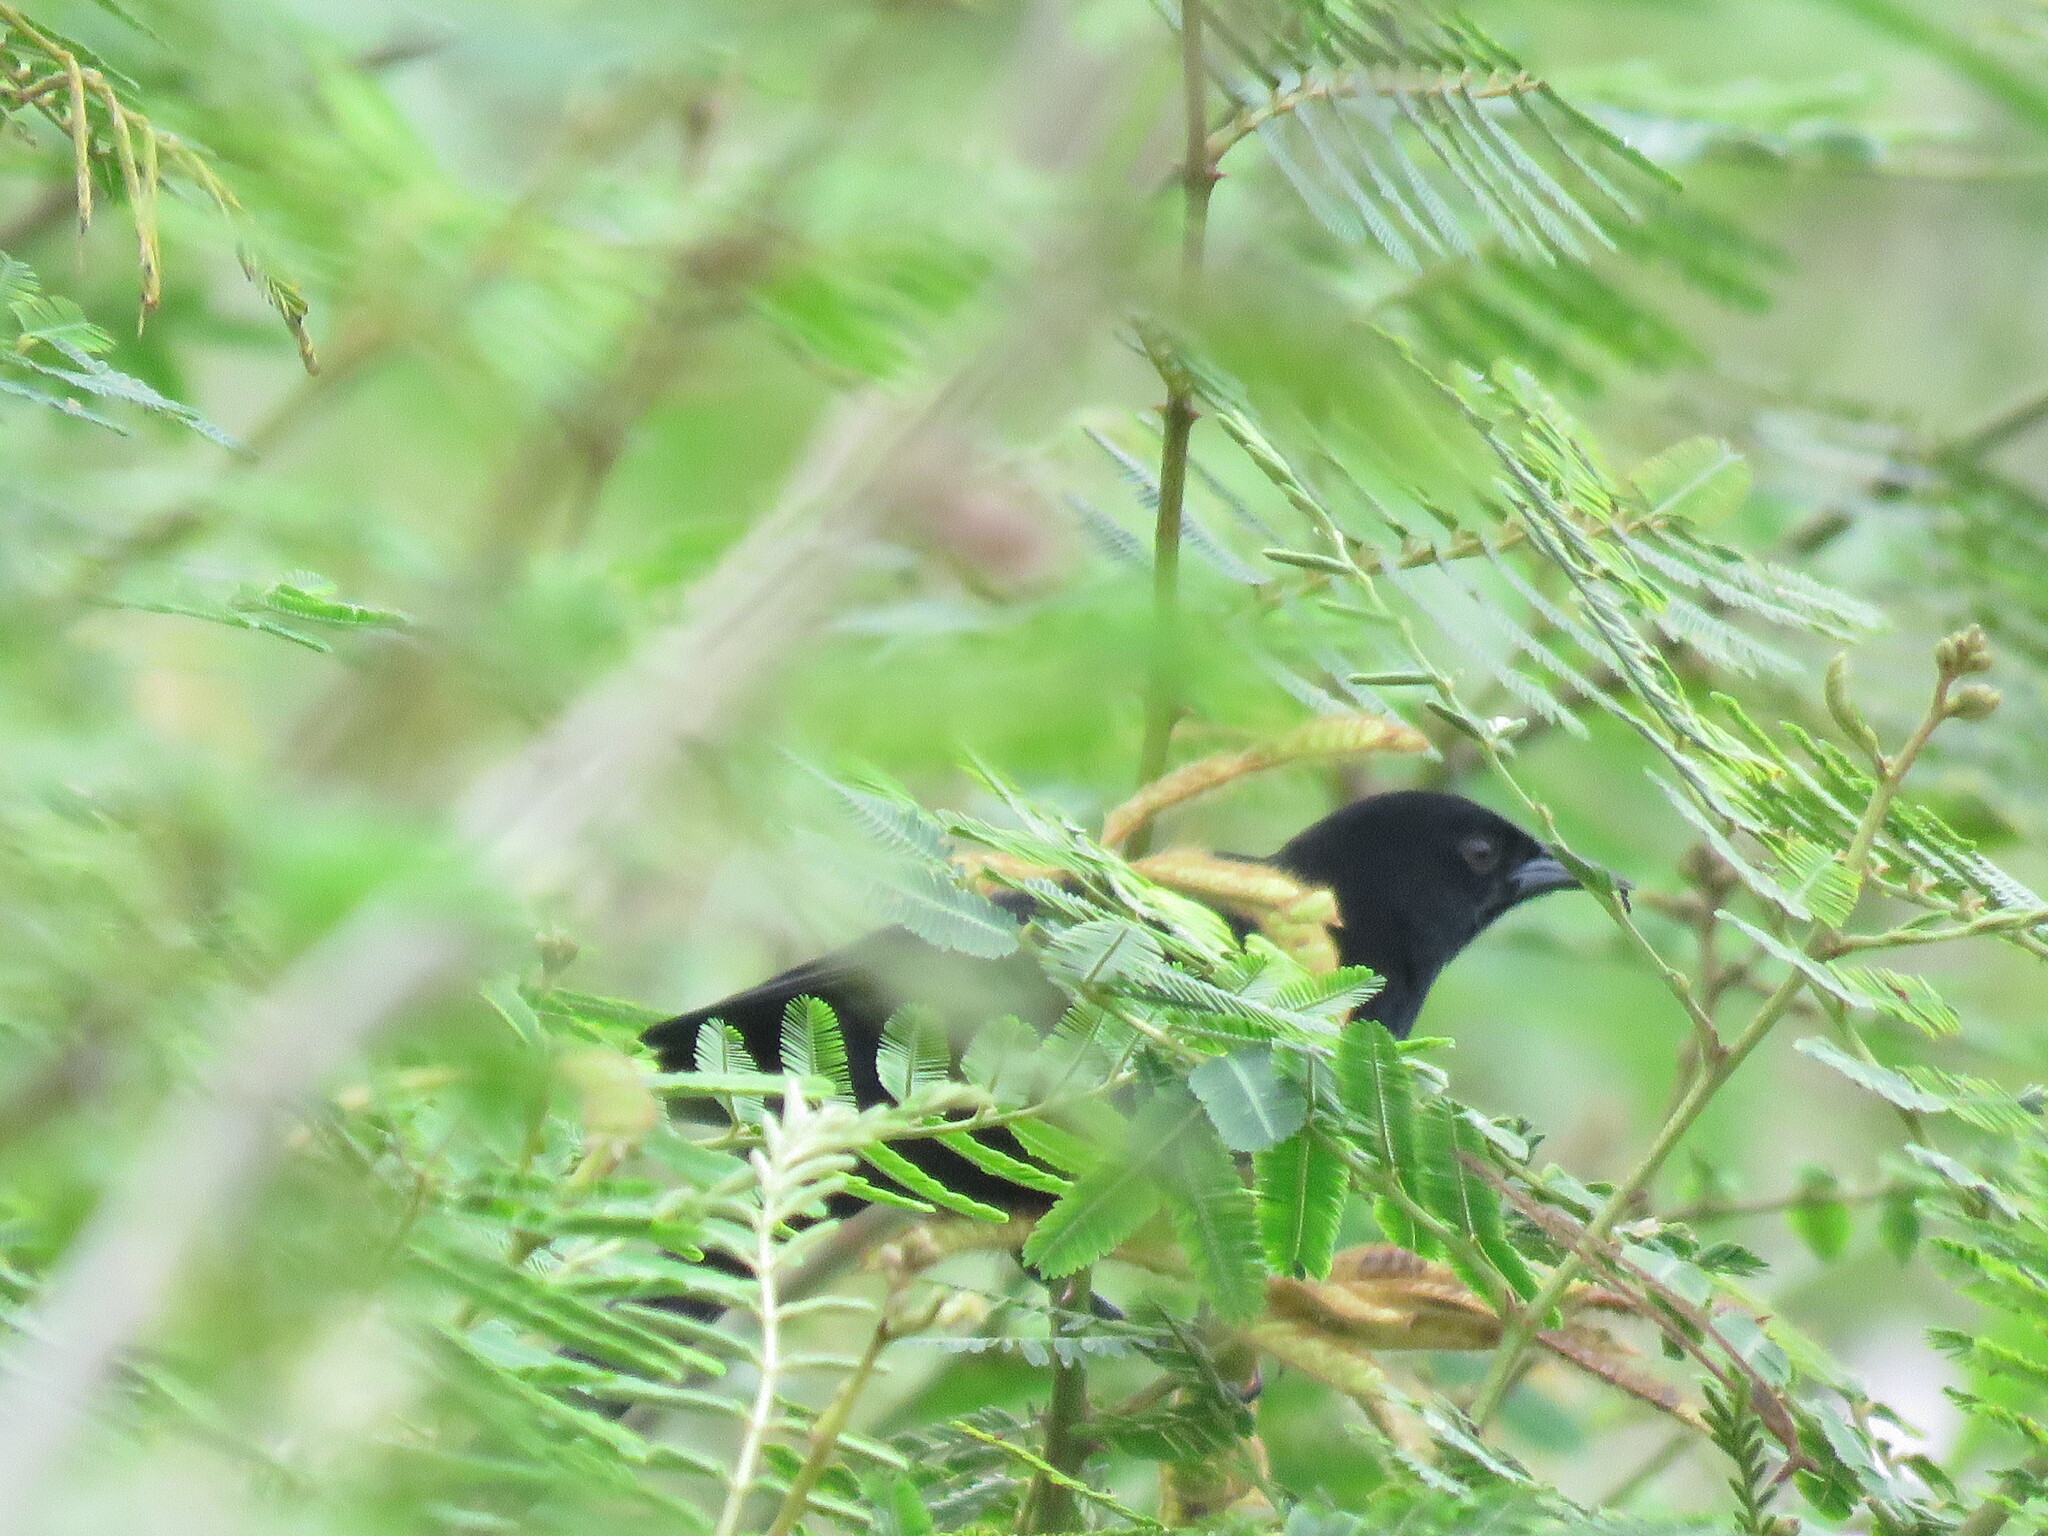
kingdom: Animalia
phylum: Chordata
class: Aves
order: Passeriformes
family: Icteridae
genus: Agelasticus
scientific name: Agelasticus cyanopus
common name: Unicolored blackbird
